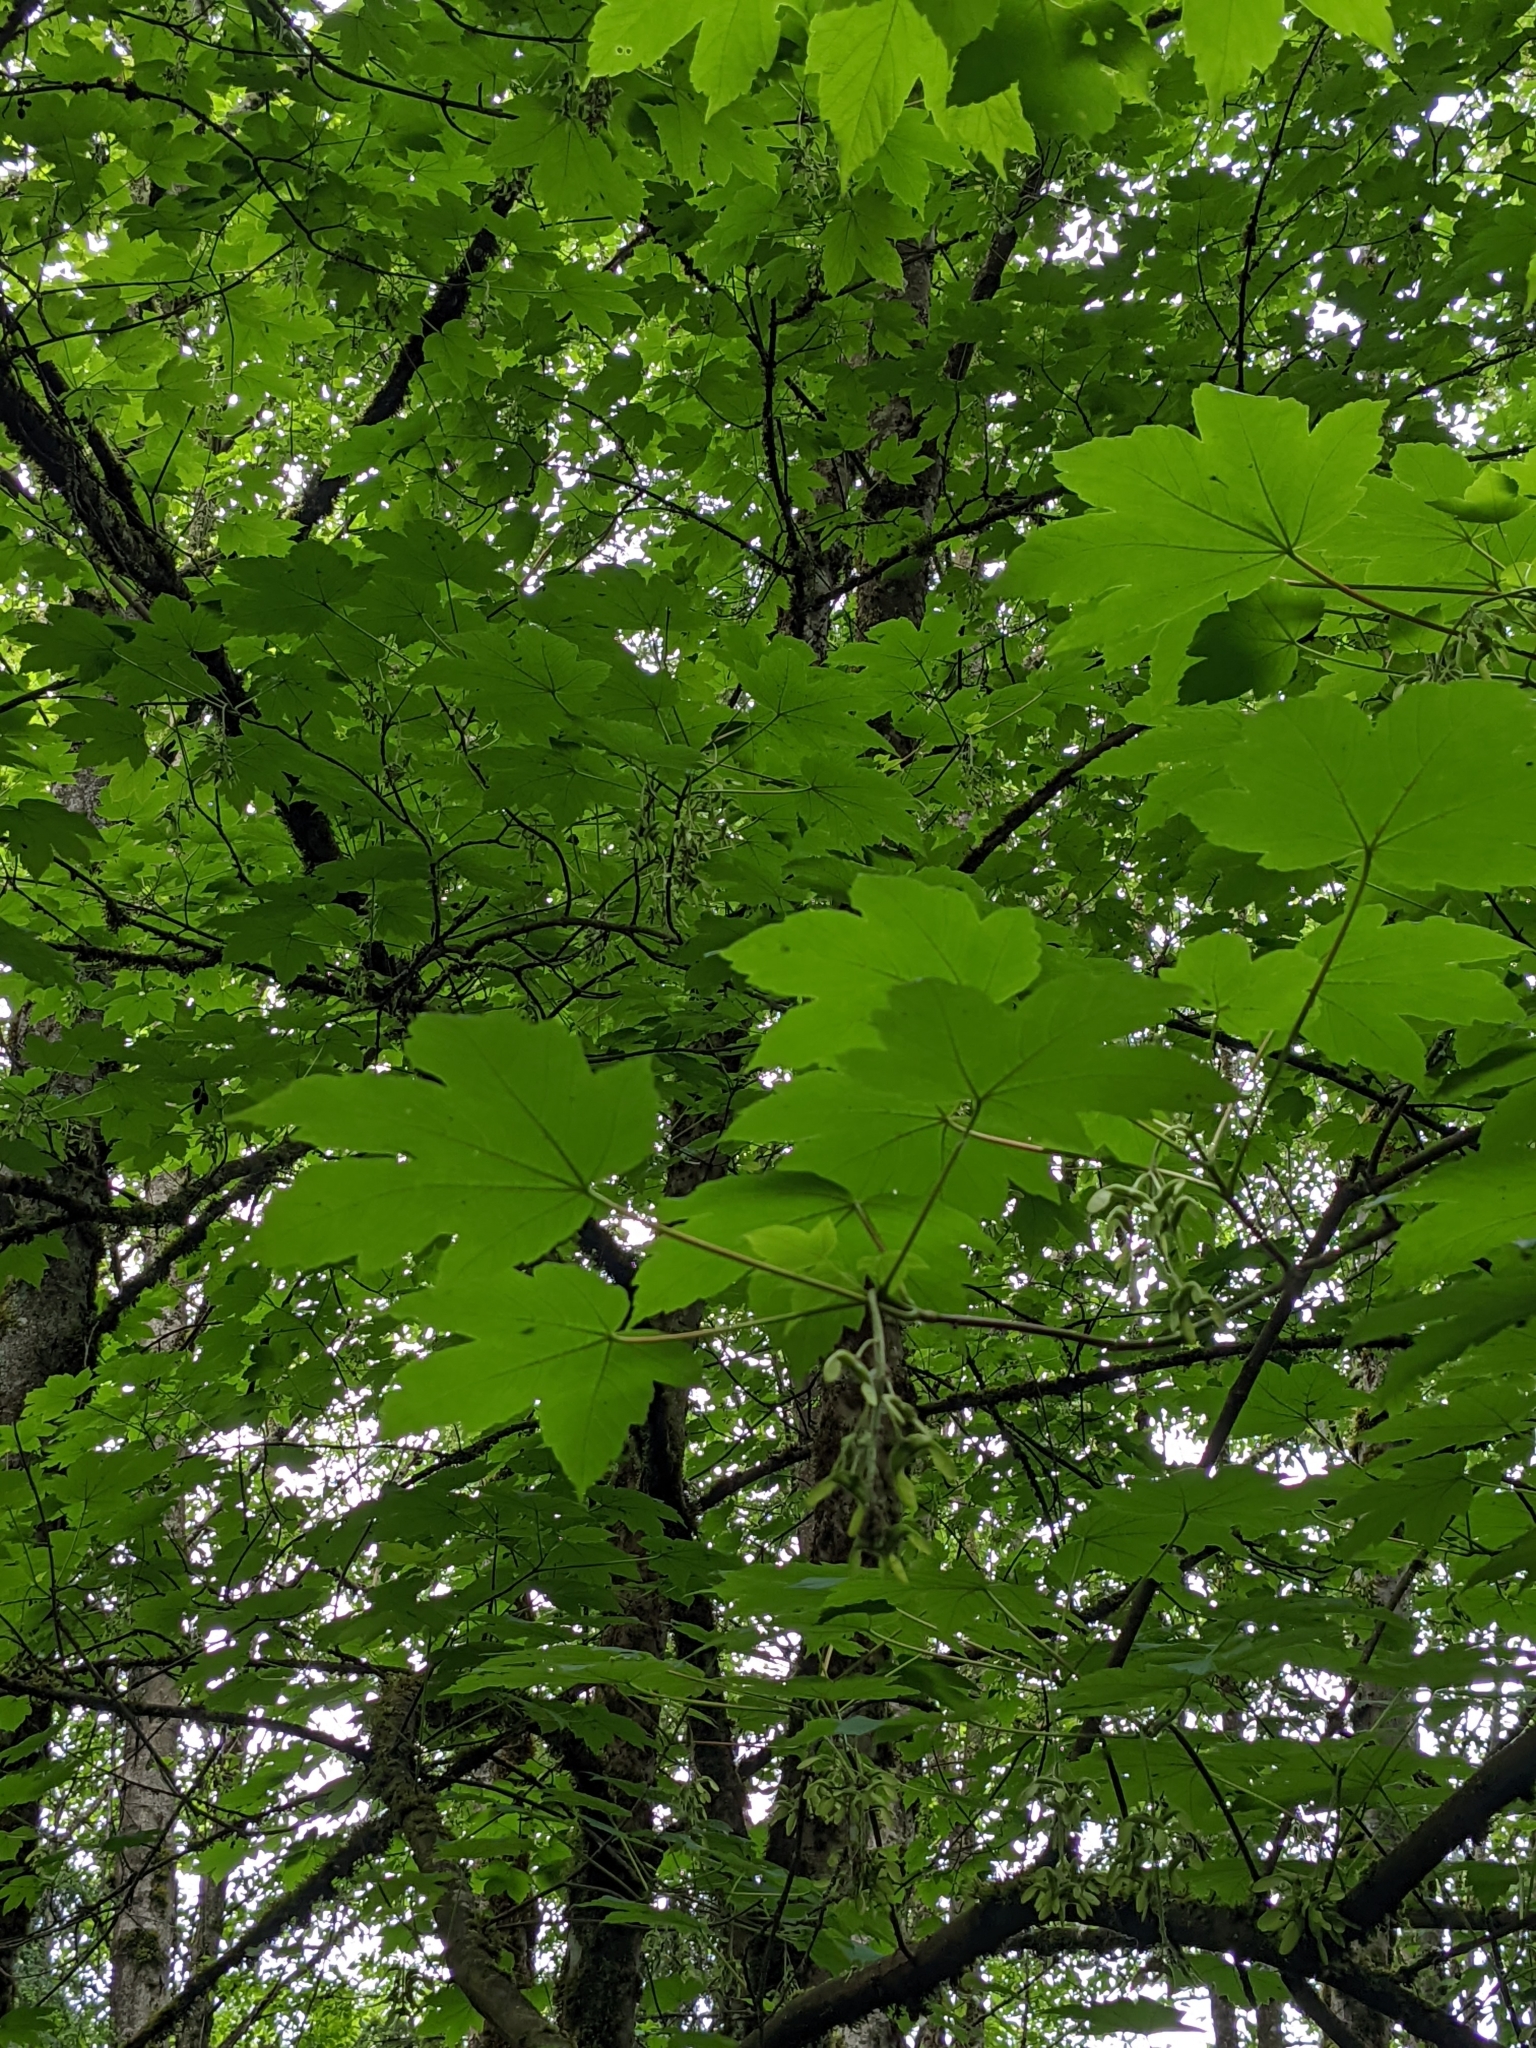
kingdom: Plantae
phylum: Tracheophyta
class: Magnoliopsida
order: Sapindales
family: Sapindaceae
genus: Acer
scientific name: Acer pseudoplatanus
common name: Sycamore
